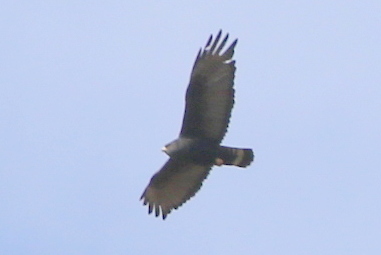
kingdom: Animalia
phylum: Chordata
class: Aves
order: Accipitriformes
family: Accipitridae
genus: Buteo
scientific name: Buteo albonotatus
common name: Zone-tailed hawk
